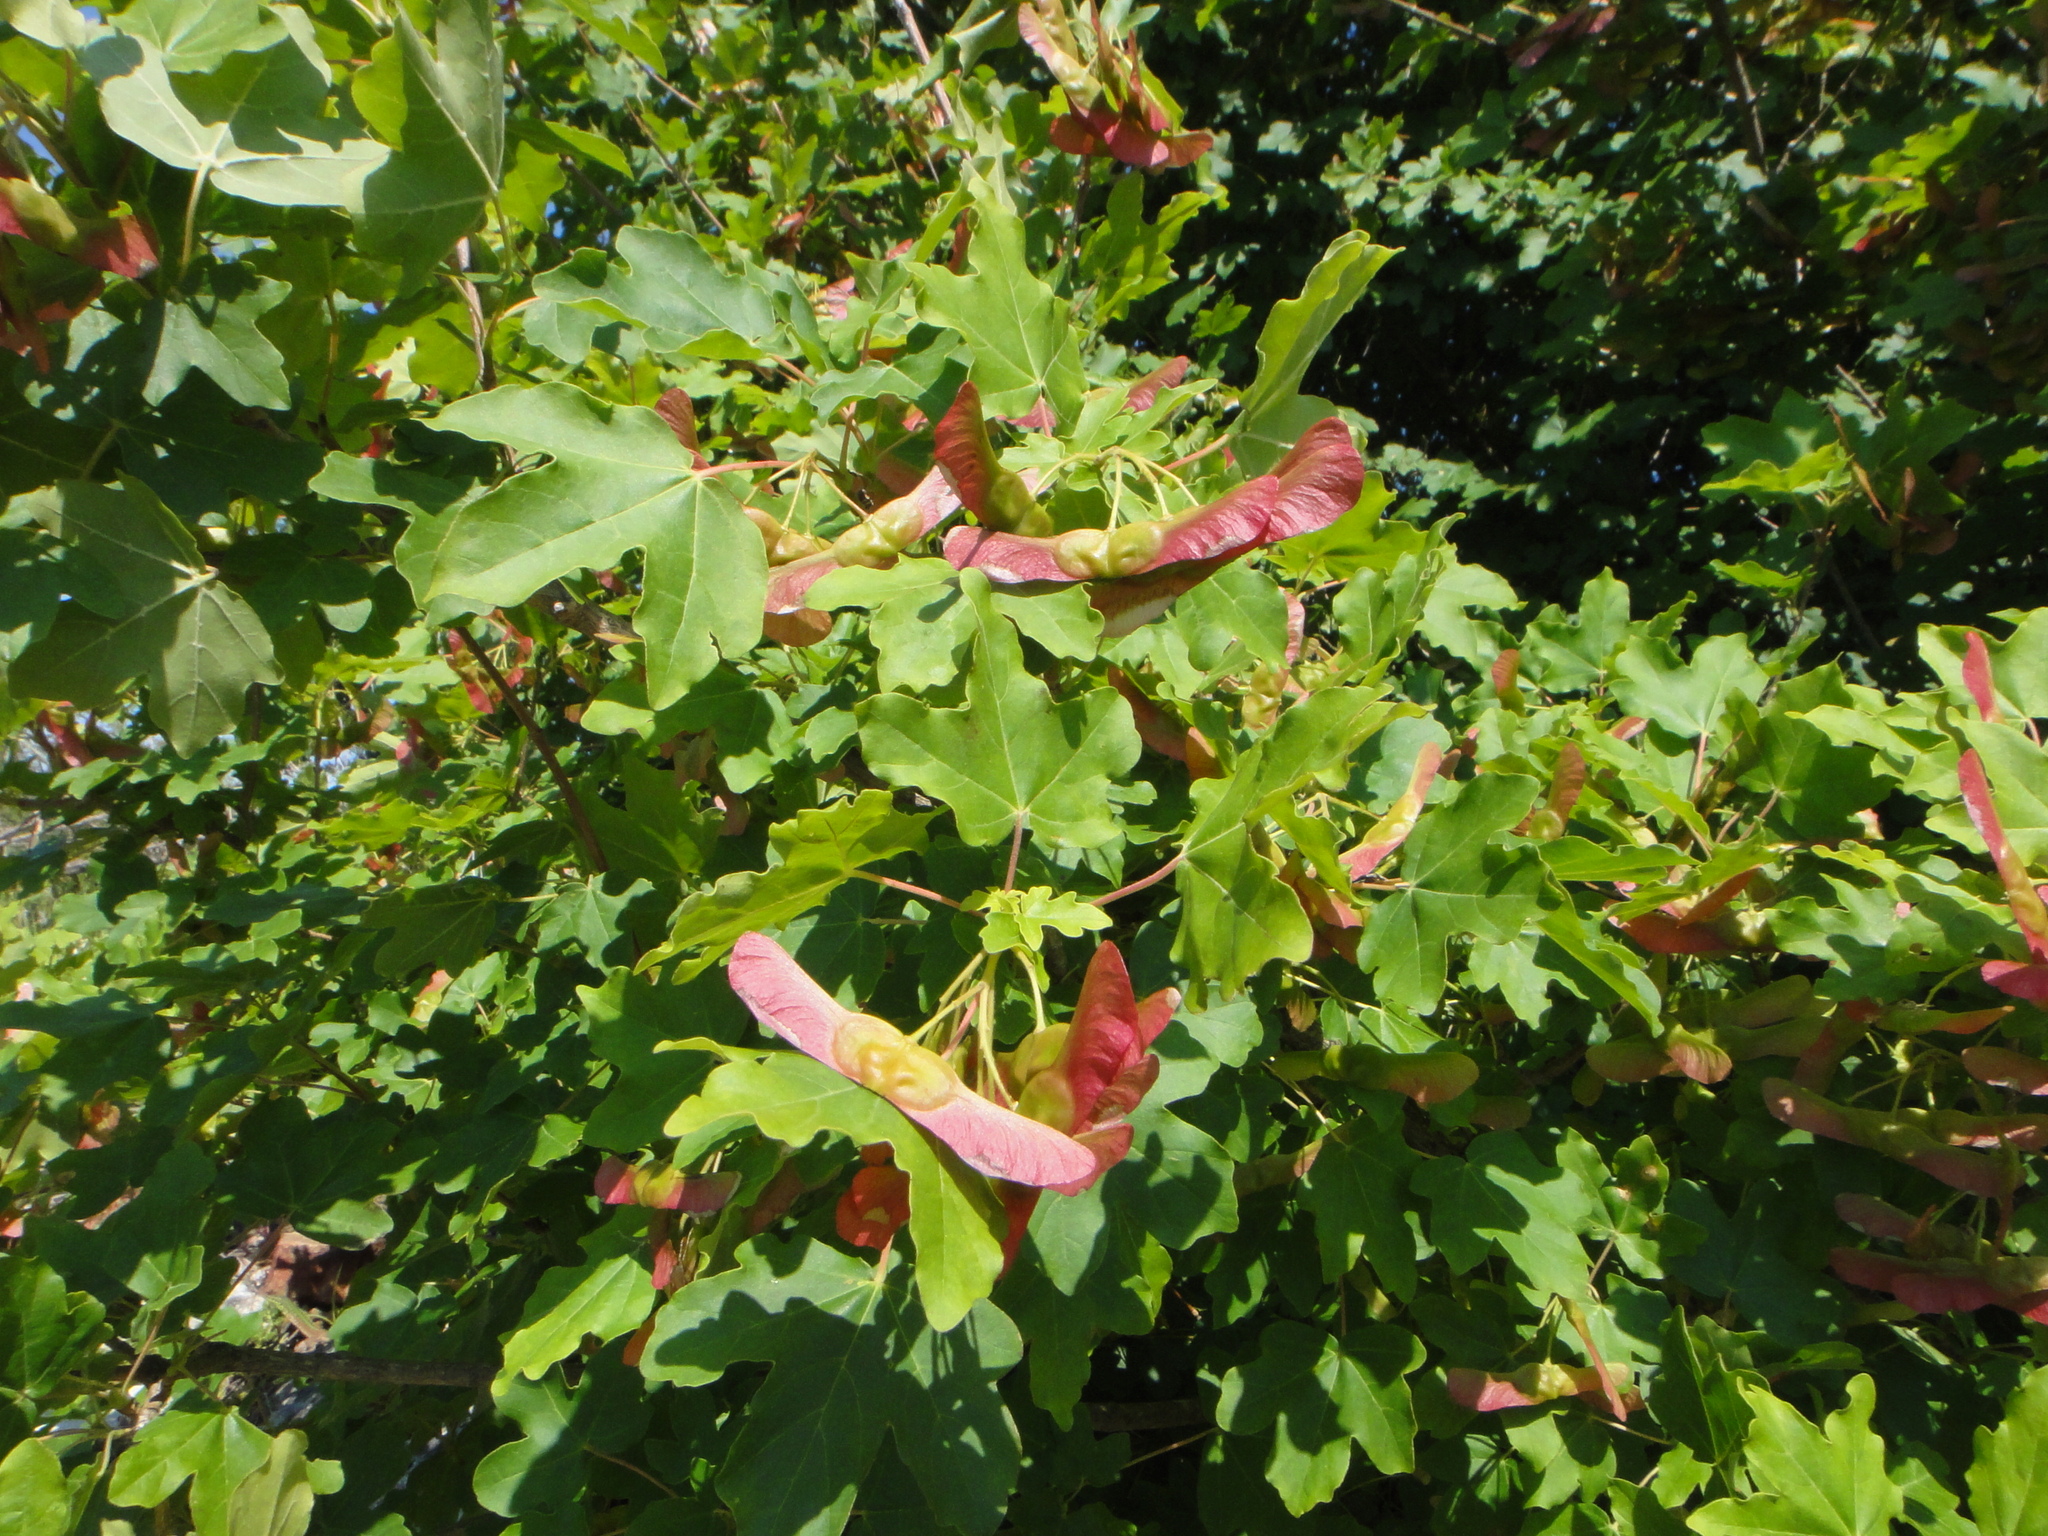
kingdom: Plantae
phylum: Tracheophyta
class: Magnoliopsida
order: Sapindales
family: Sapindaceae
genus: Acer
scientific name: Acer campestre
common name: Field maple
